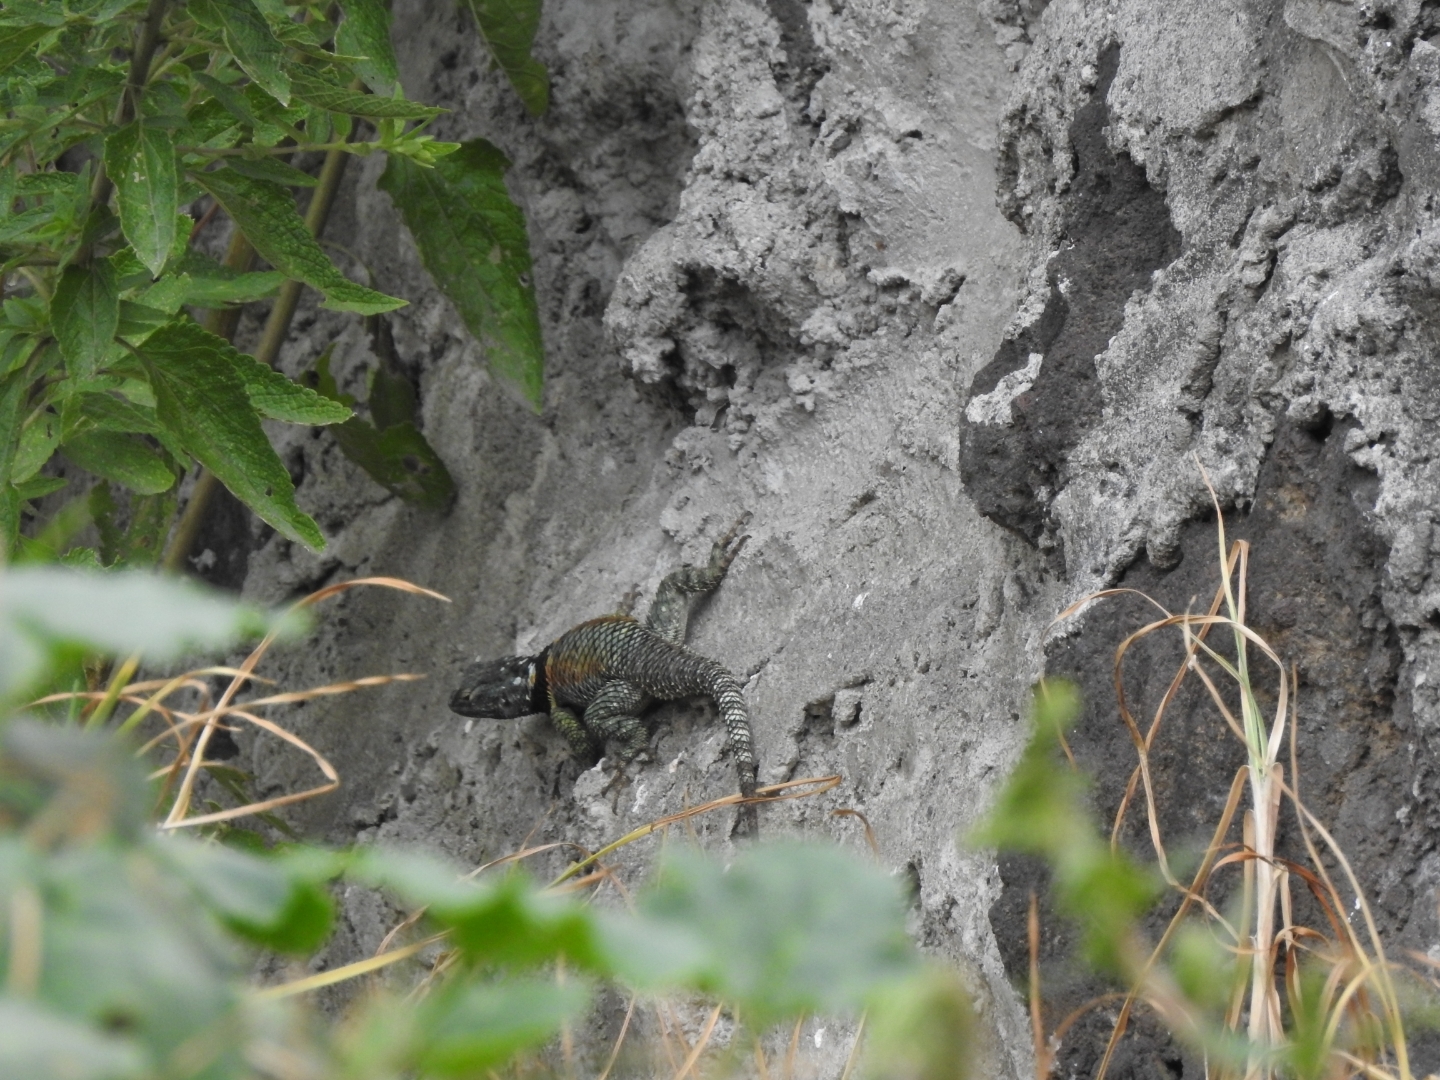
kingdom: Animalia
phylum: Chordata
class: Squamata
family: Phrynosomatidae
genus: Sceloporus
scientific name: Sceloporus torquatus
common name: Central plateau torquate lizard [melanogaster]
